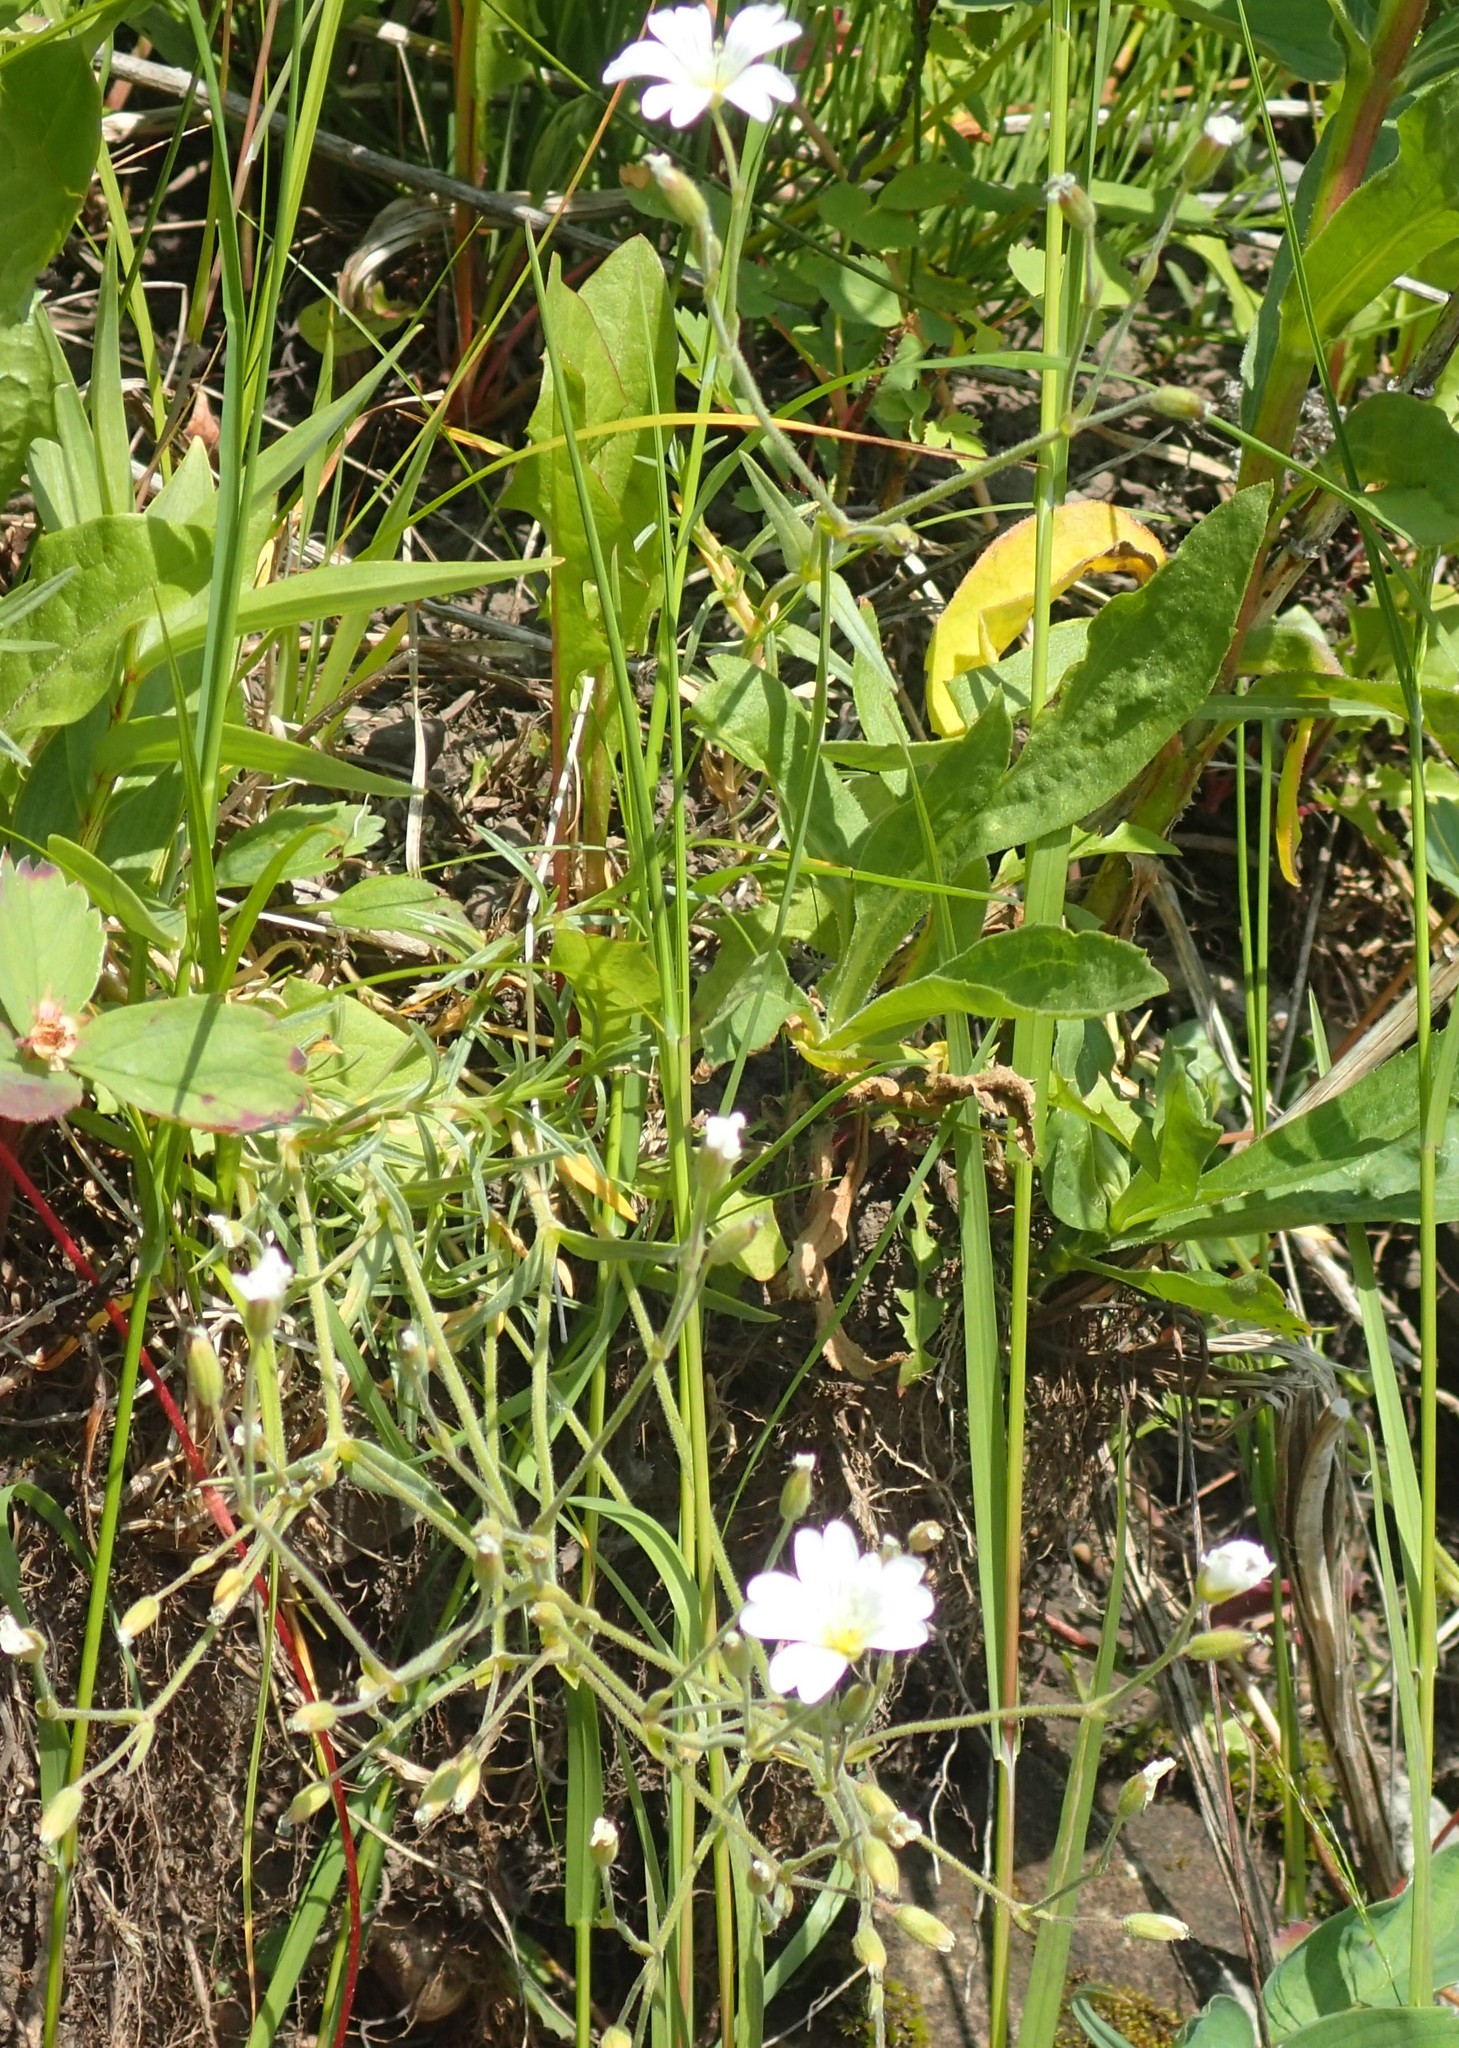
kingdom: Plantae
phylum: Tracheophyta
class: Magnoliopsida
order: Caryophyllales
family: Caryophyllaceae
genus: Cerastium
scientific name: Cerastium arvense
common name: Field mouse-ear
